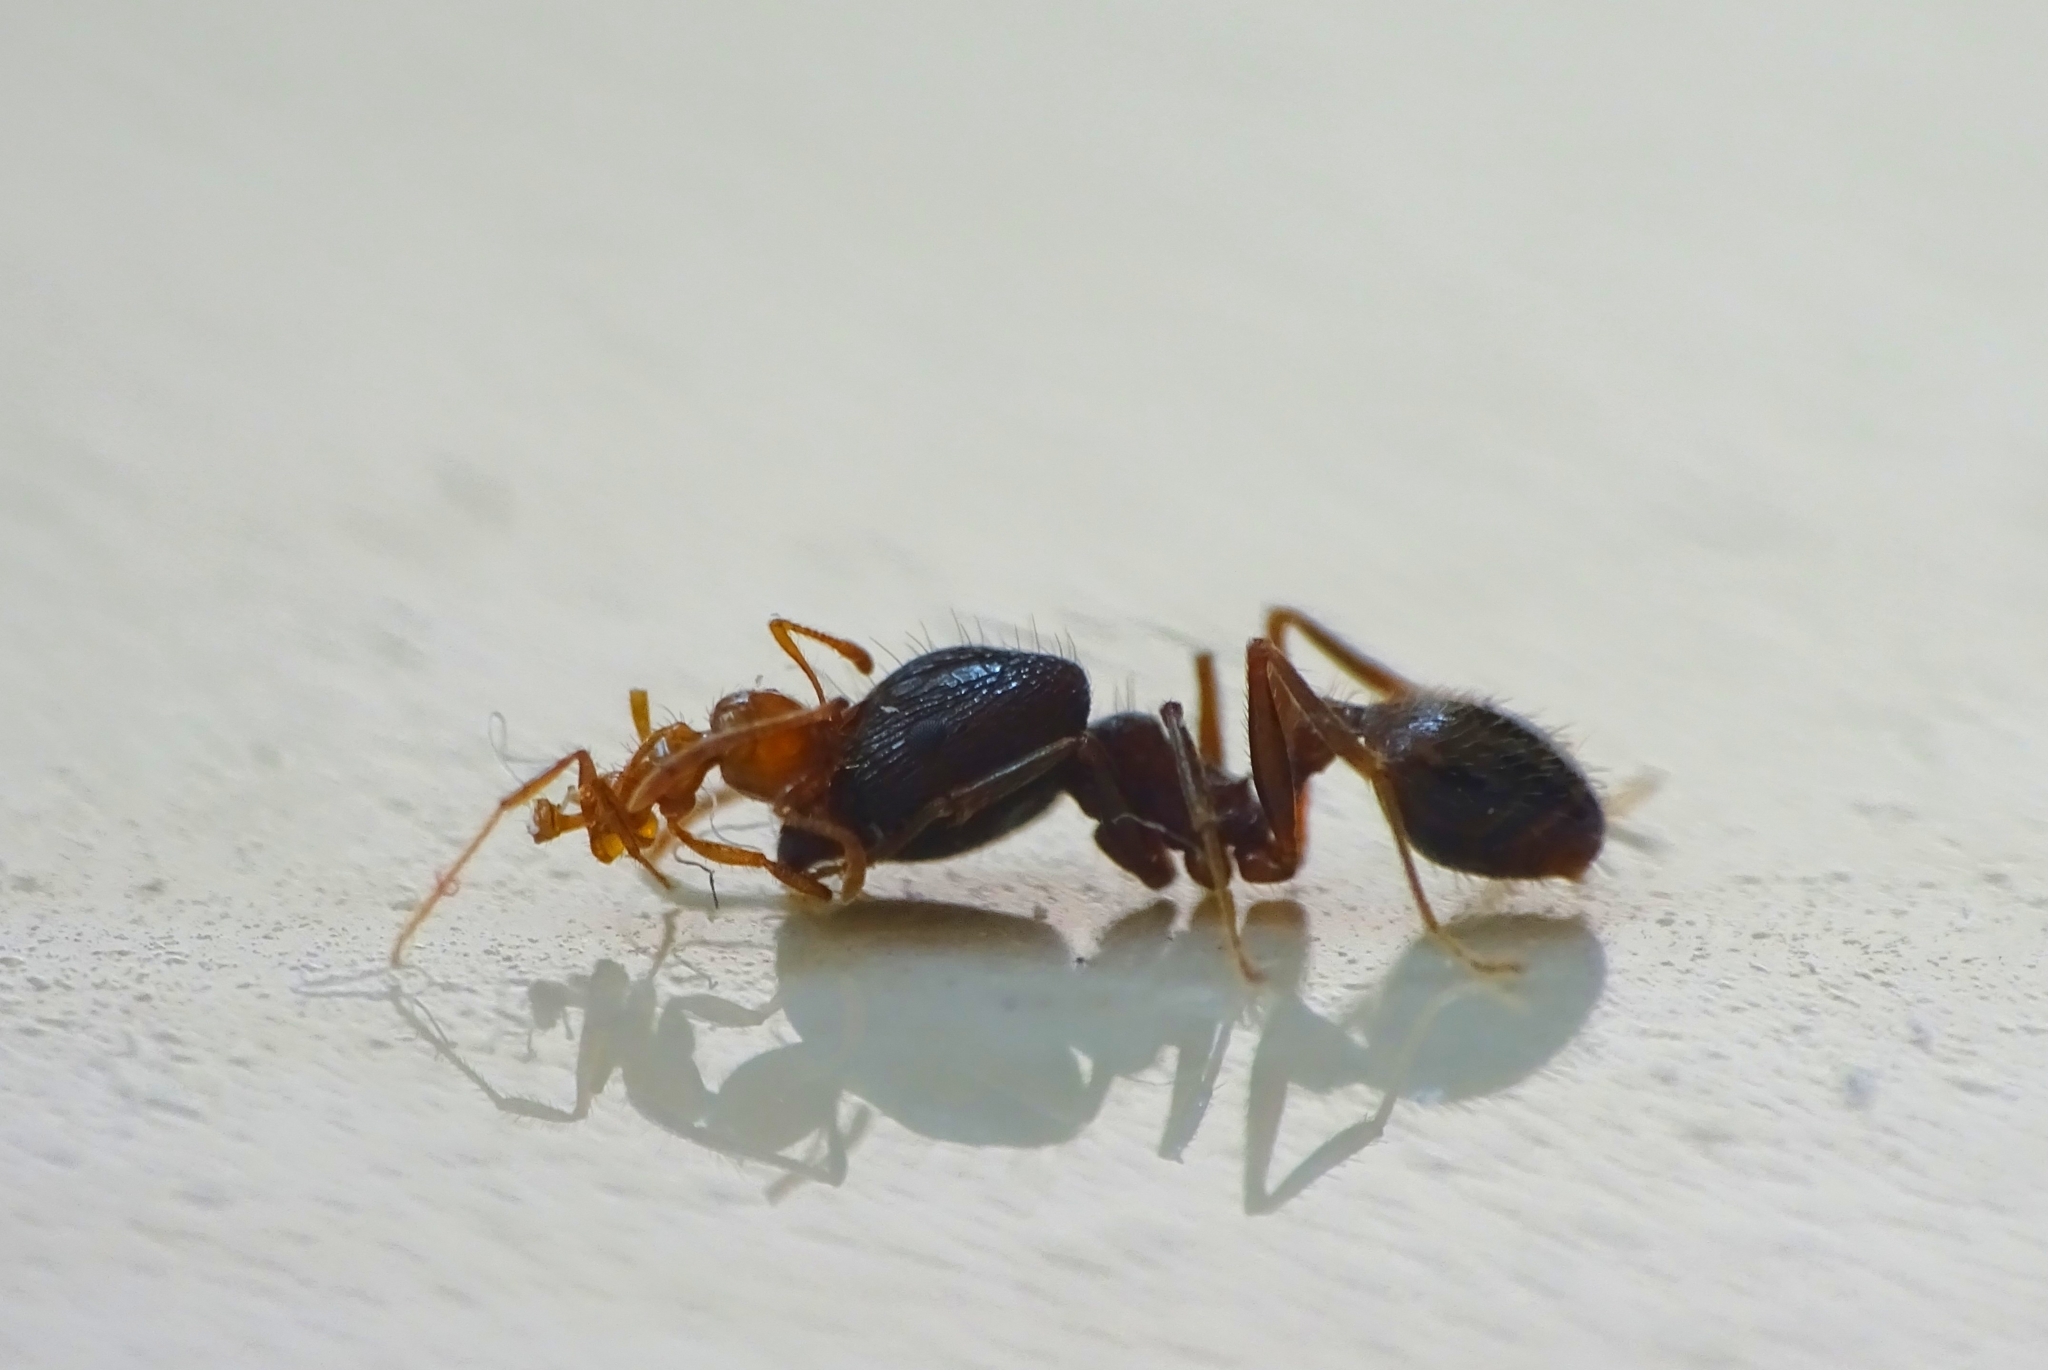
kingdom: Animalia
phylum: Arthropoda
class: Insecta
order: Hymenoptera
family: Formicidae
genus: Solenopsis
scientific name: Solenopsis geminata
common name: Tropical fire ant
